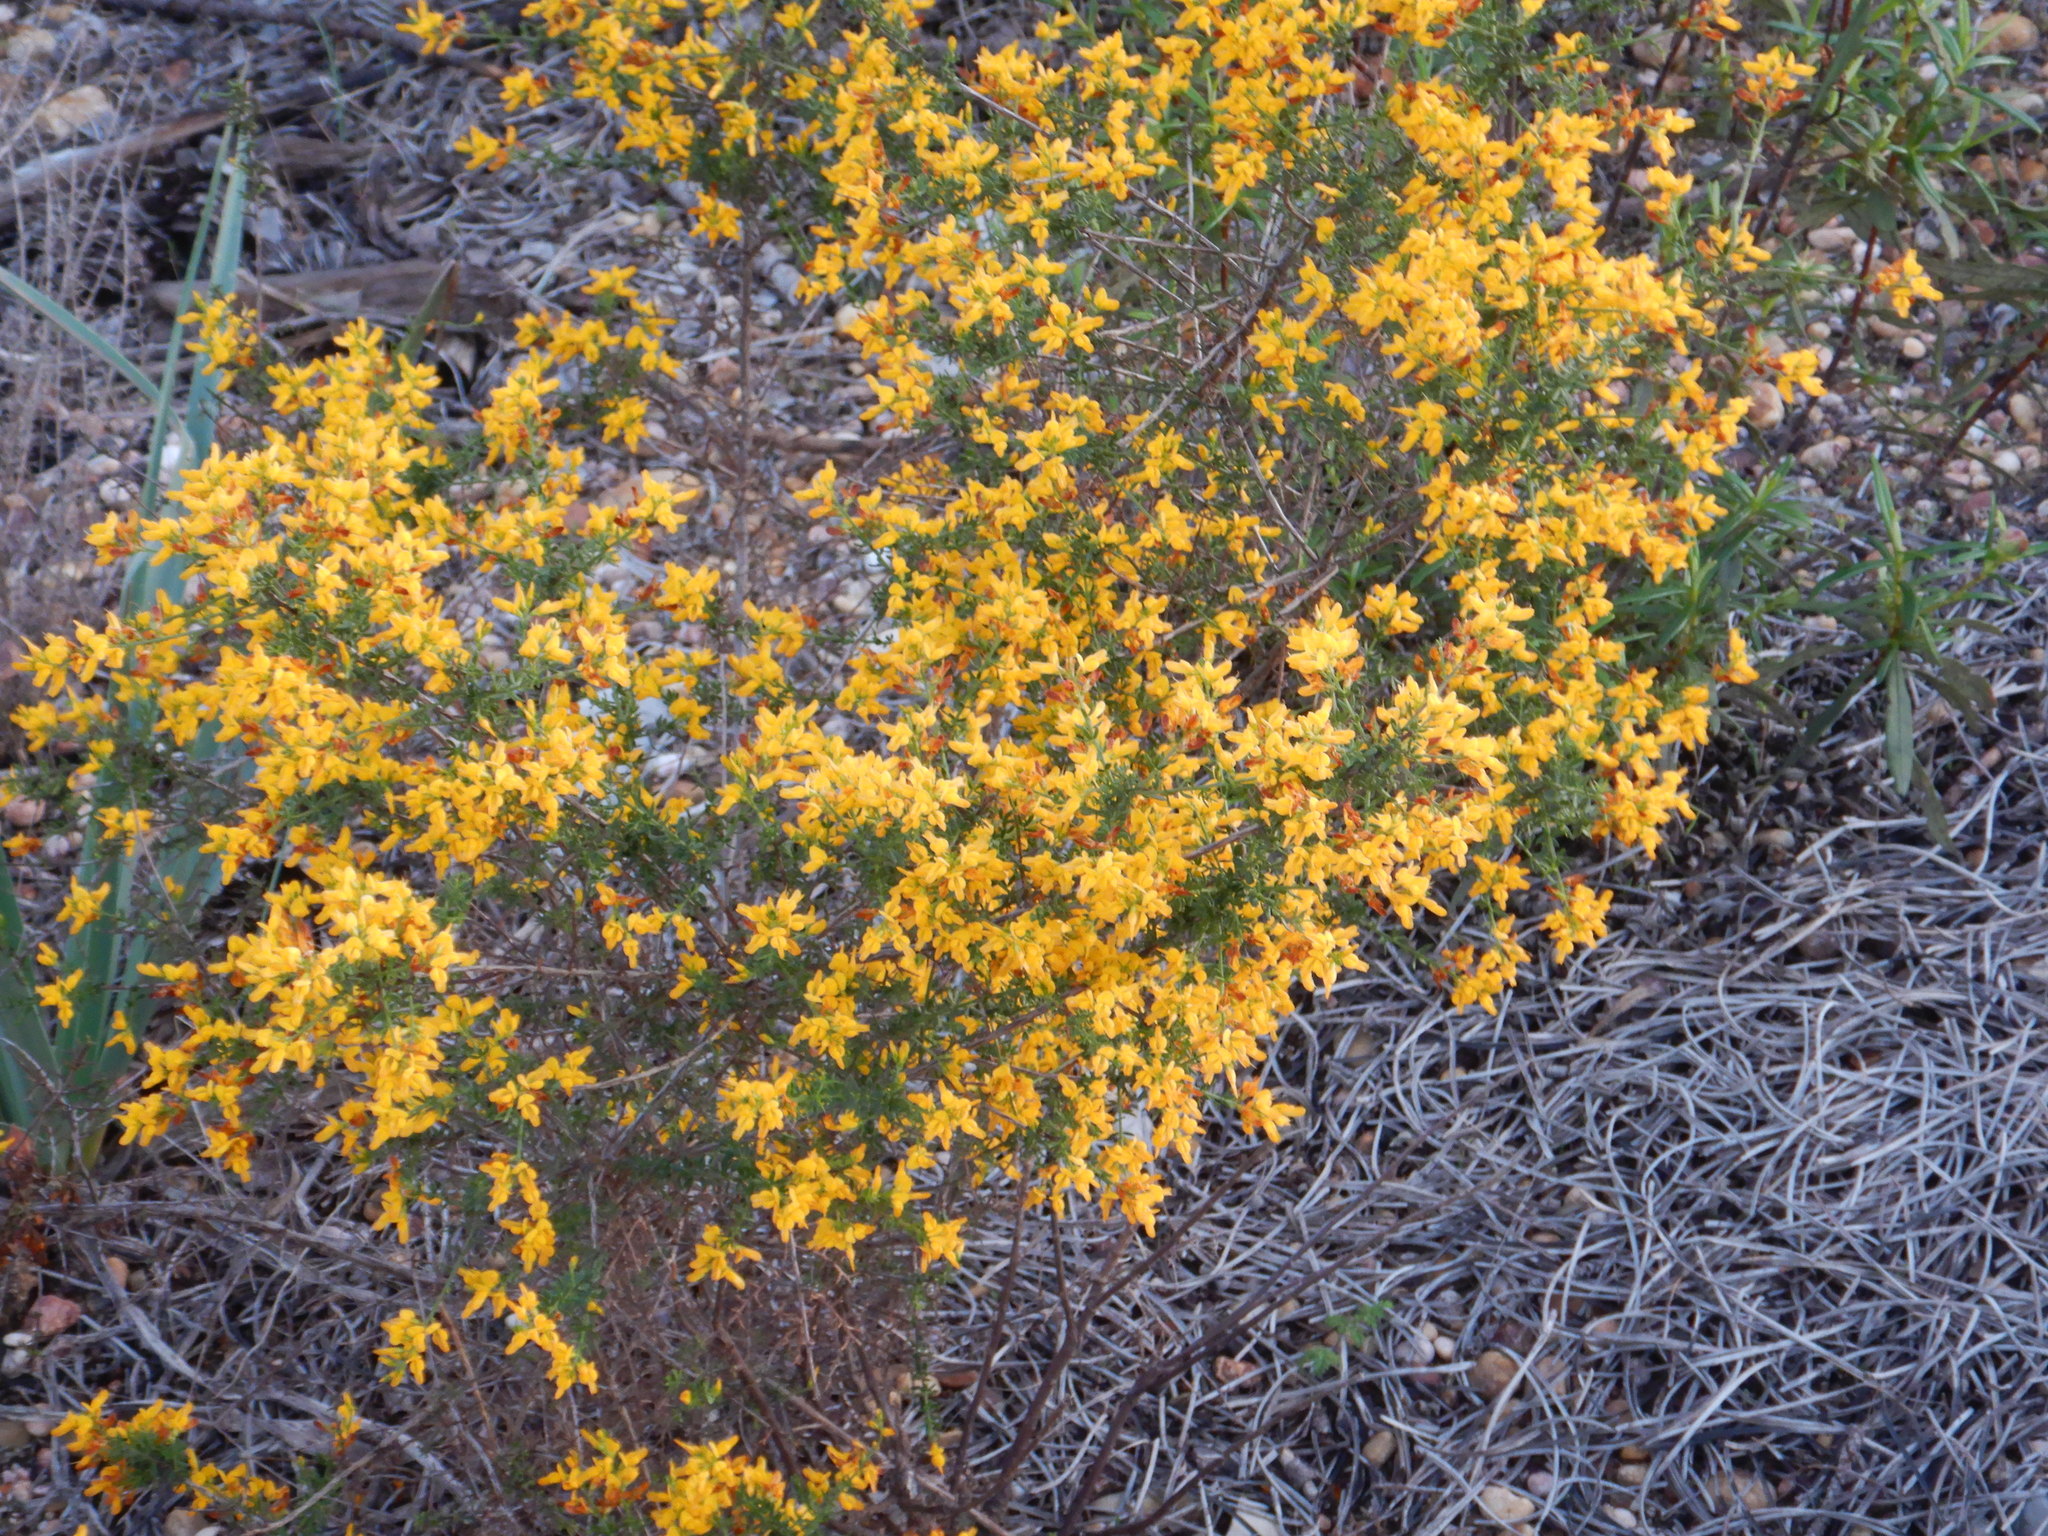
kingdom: Plantae
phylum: Tracheophyta
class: Magnoliopsida
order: Fabales
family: Fabaceae
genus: Genista
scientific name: Genista triacanthos
